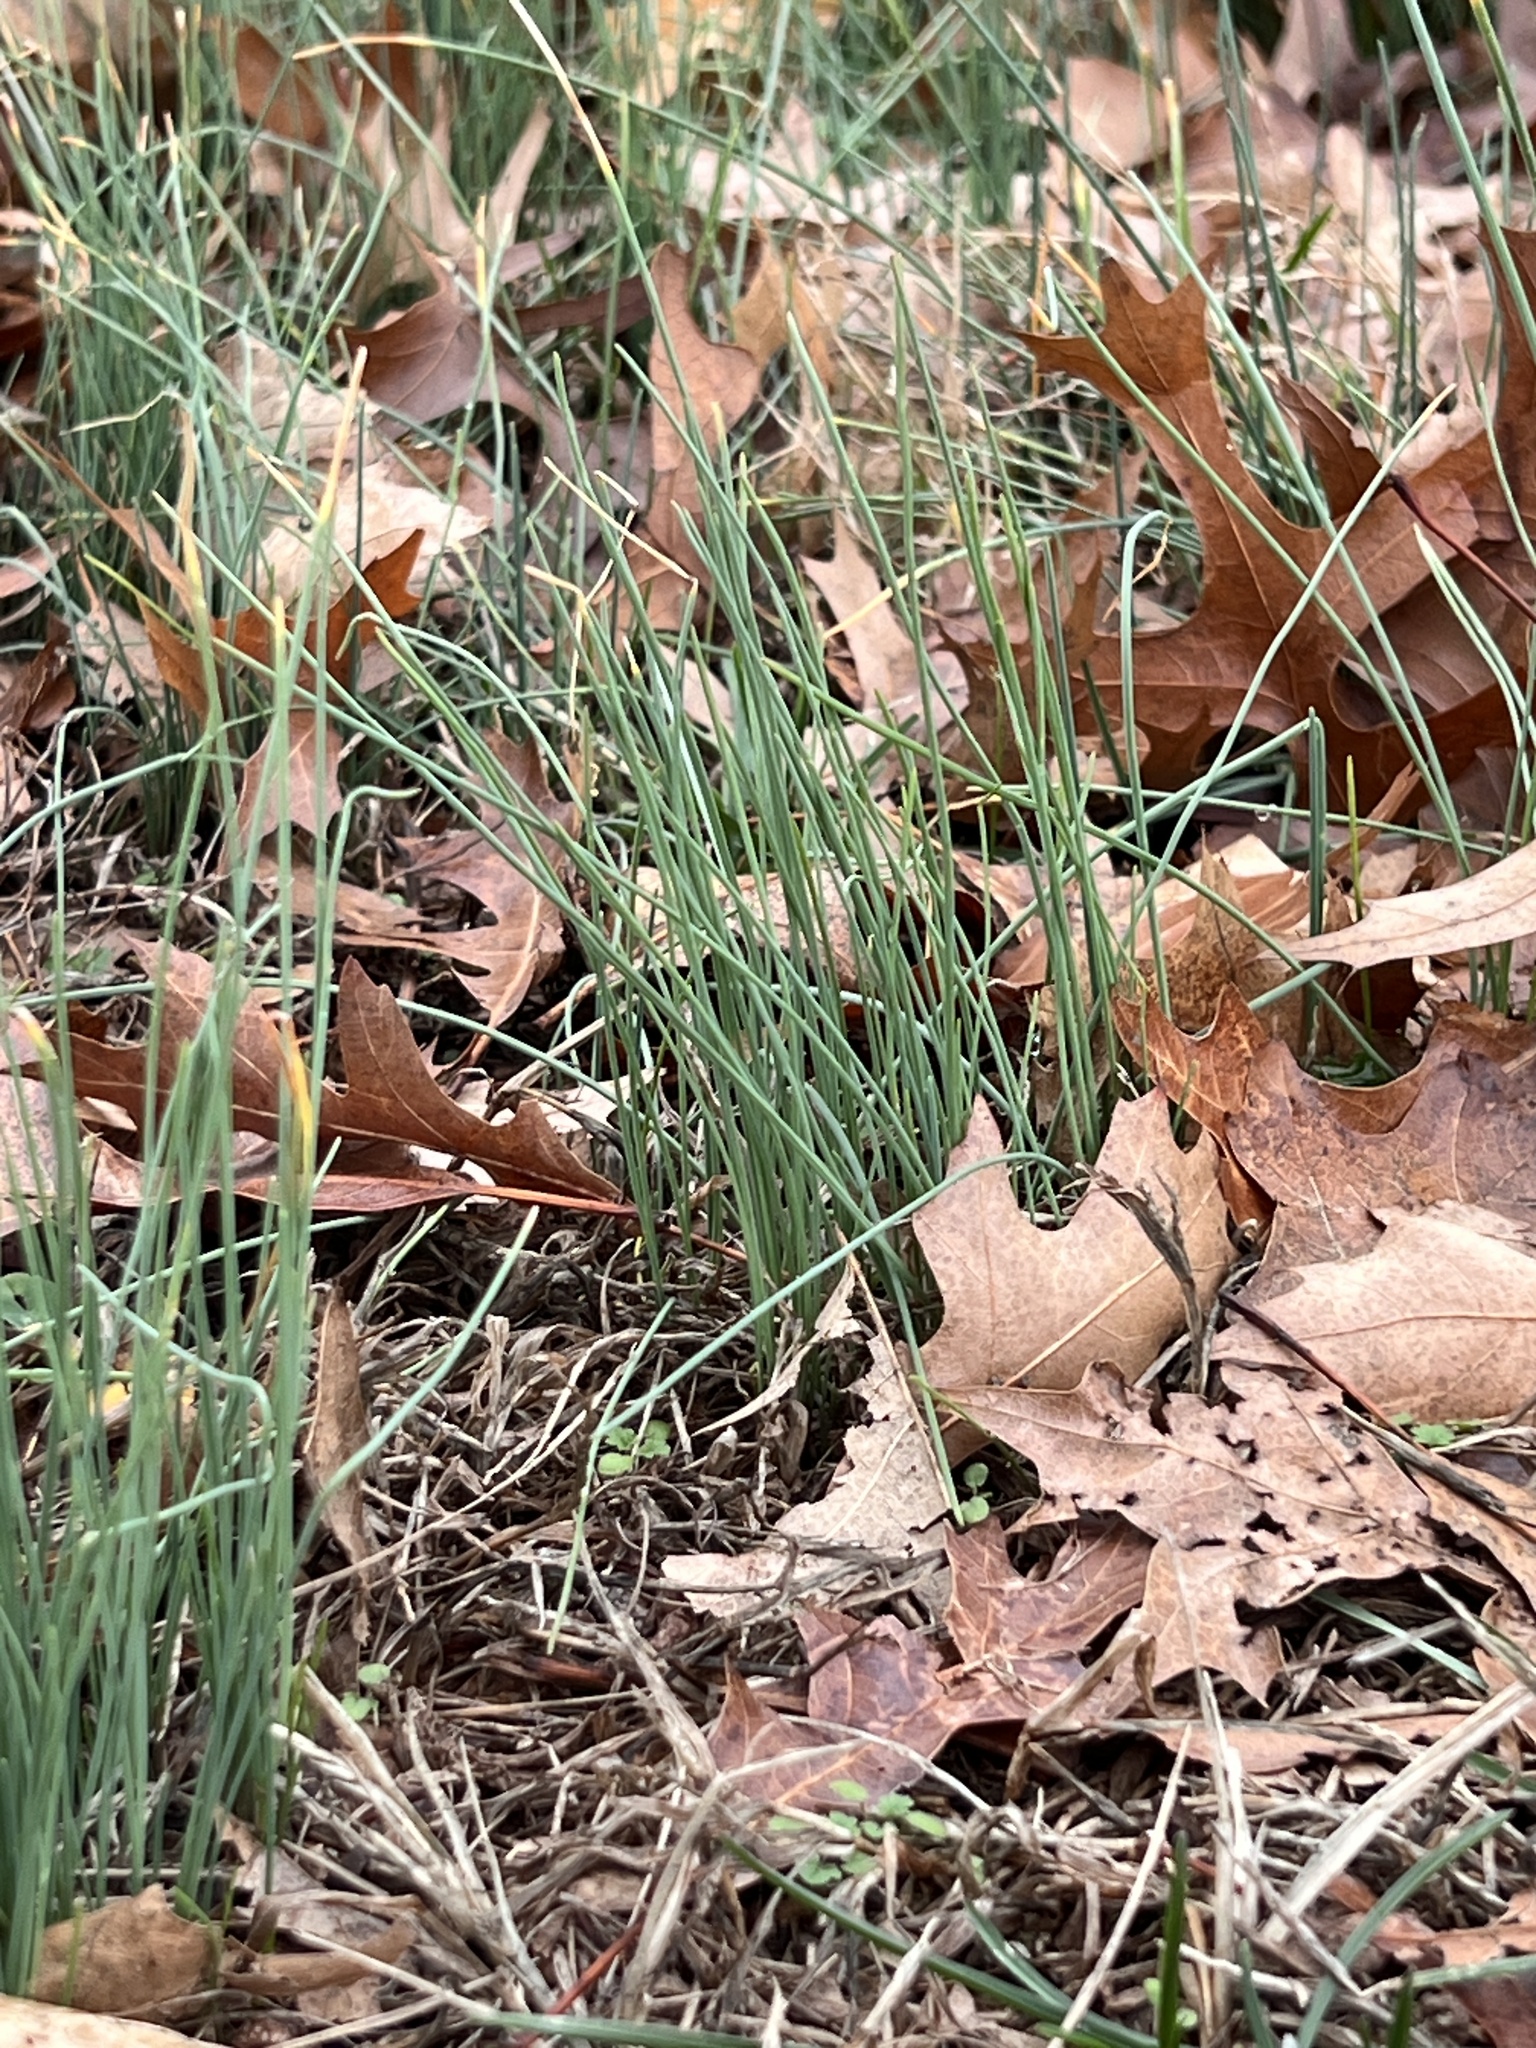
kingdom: Plantae
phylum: Tracheophyta
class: Liliopsida
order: Asparagales
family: Amaryllidaceae
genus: Allium
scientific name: Allium vineale
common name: Crow garlic
